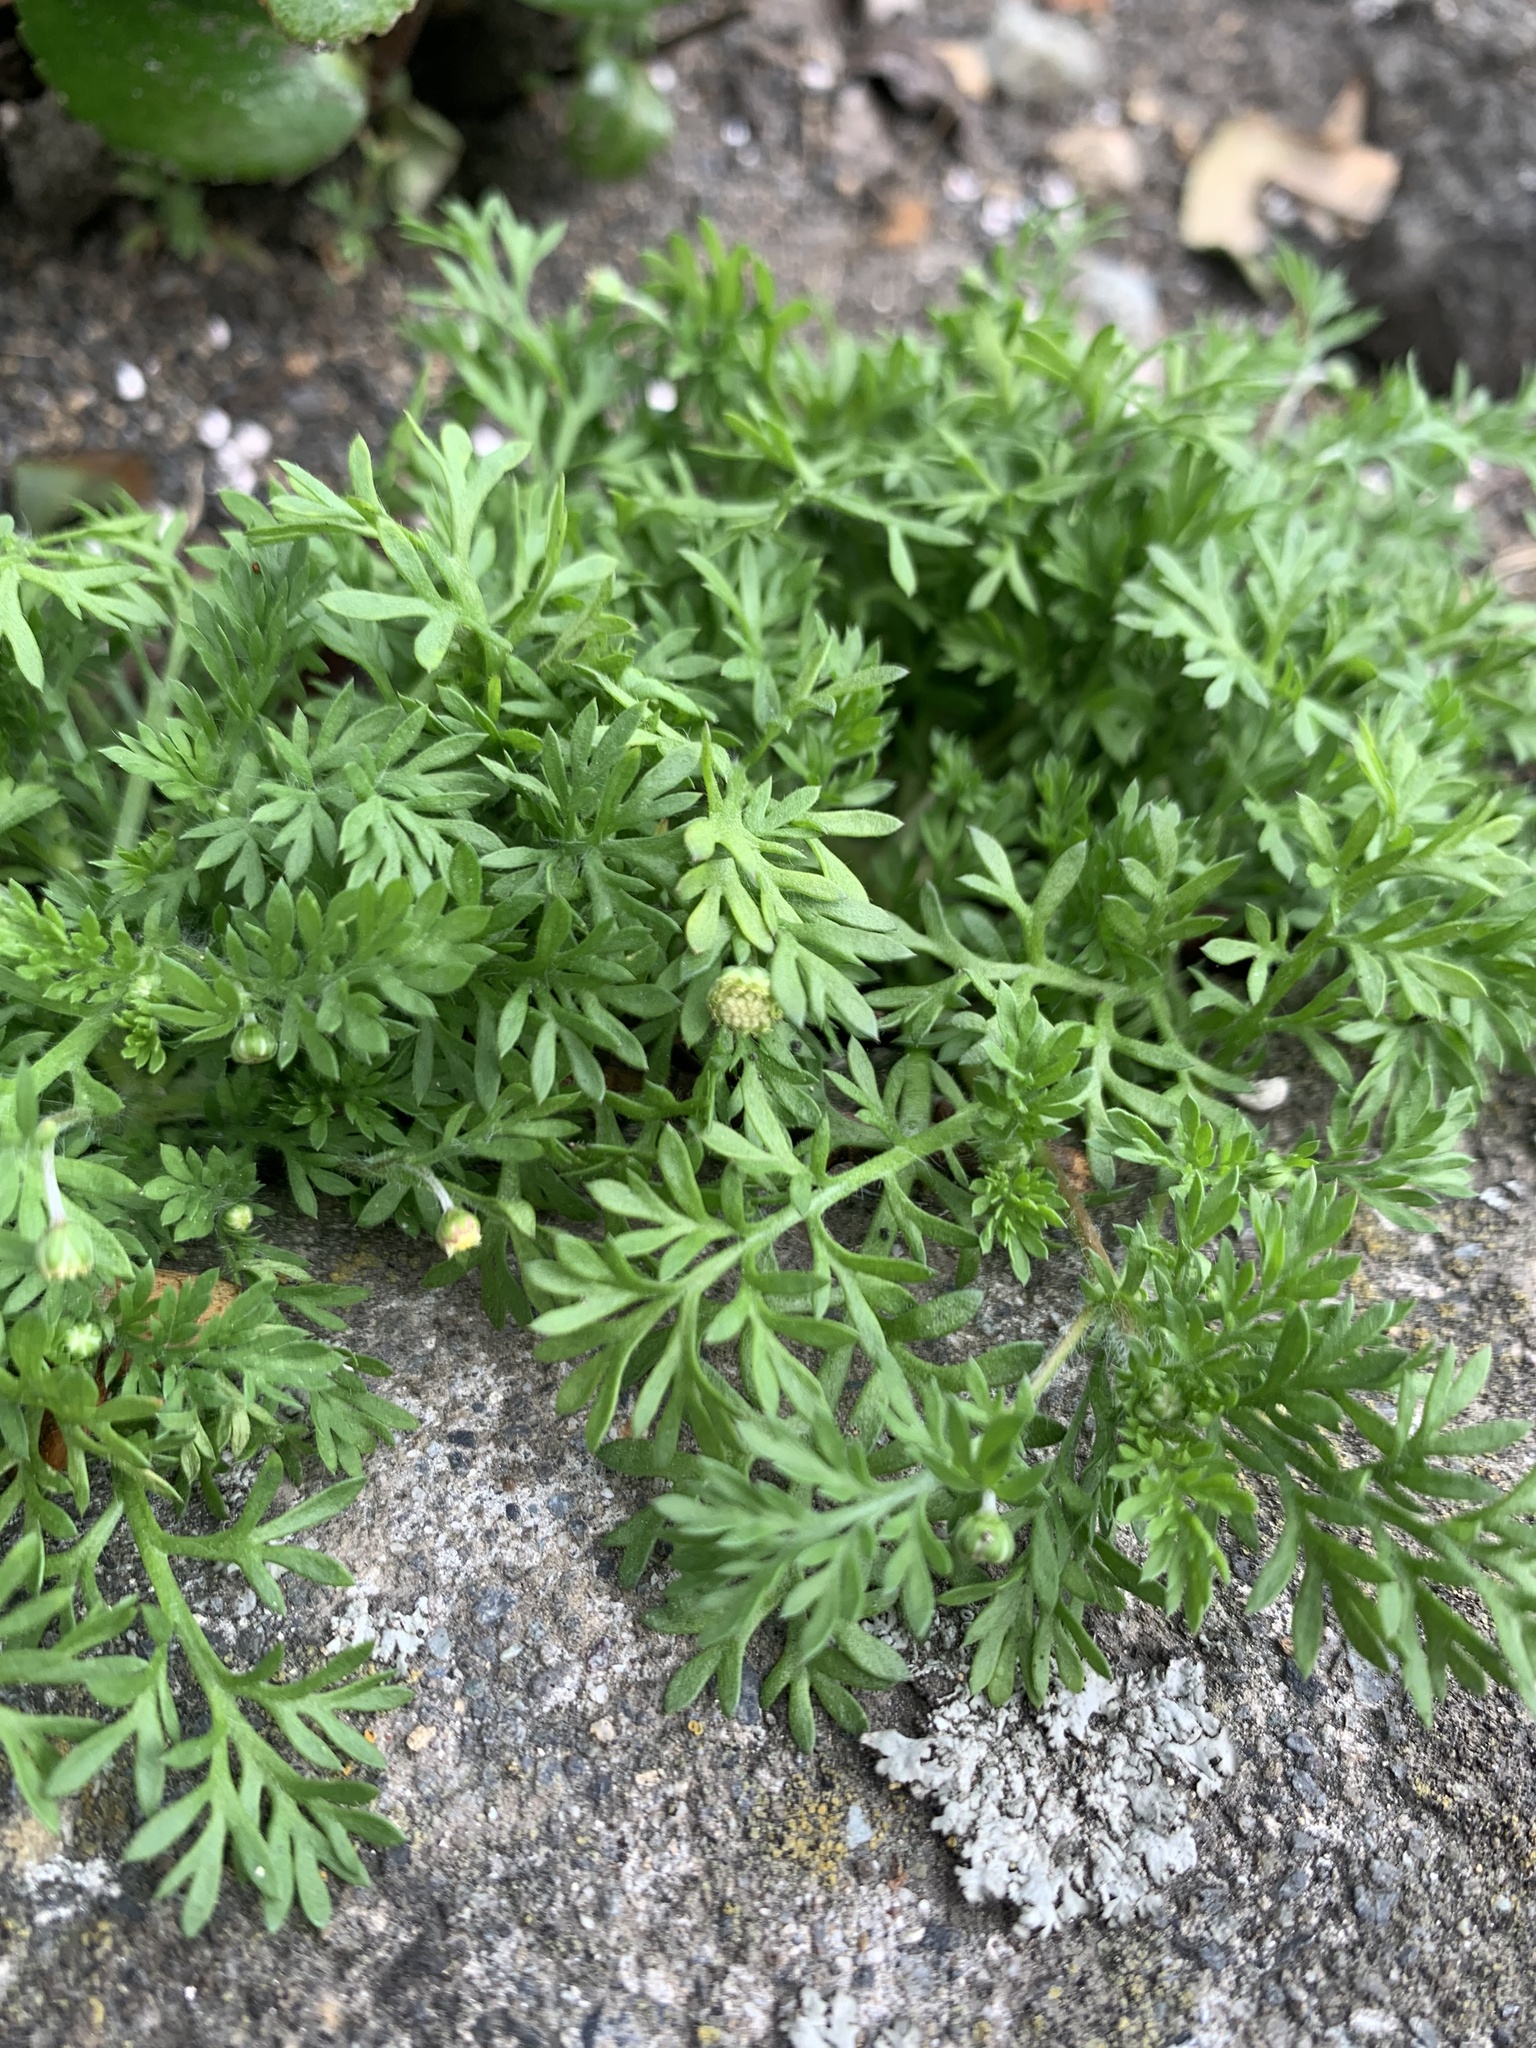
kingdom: Plantae
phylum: Tracheophyta
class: Magnoliopsida
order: Asterales
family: Asteraceae
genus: Cotula
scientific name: Cotula australis
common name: Australian waterbuttons
